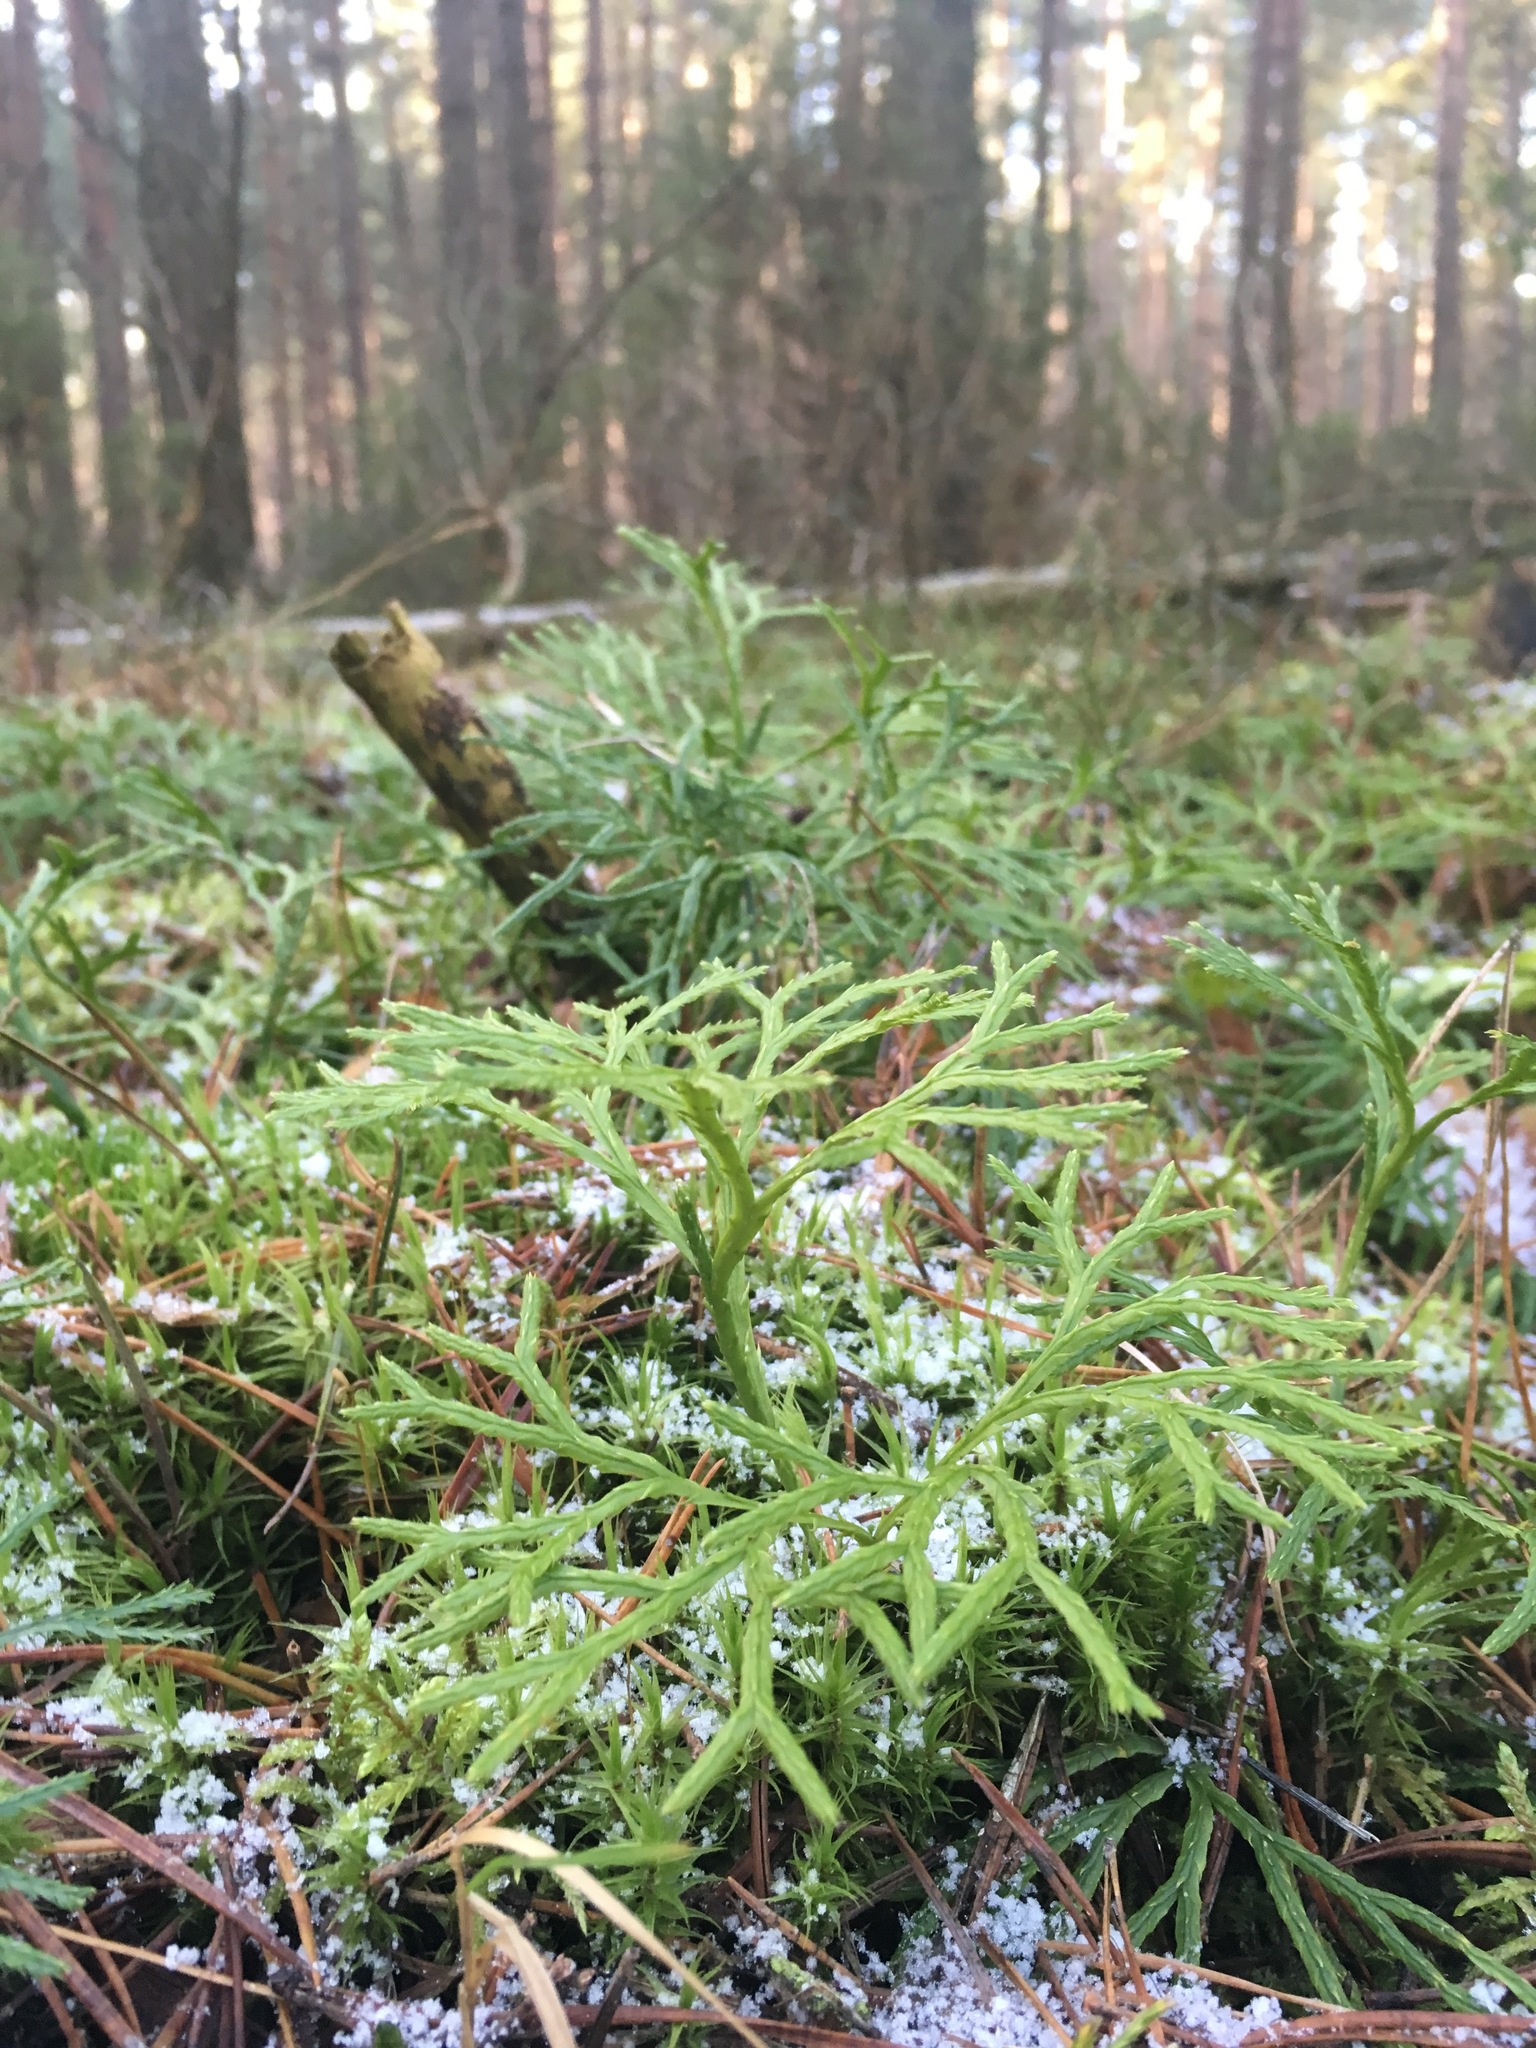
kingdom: Plantae
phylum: Tracheophyta
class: Lycopodiopsida
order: Lycopodiales
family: Lycopodiaceae
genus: Diphasiastrum
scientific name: Diphasiastrum complanatum
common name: Northern running-pine
